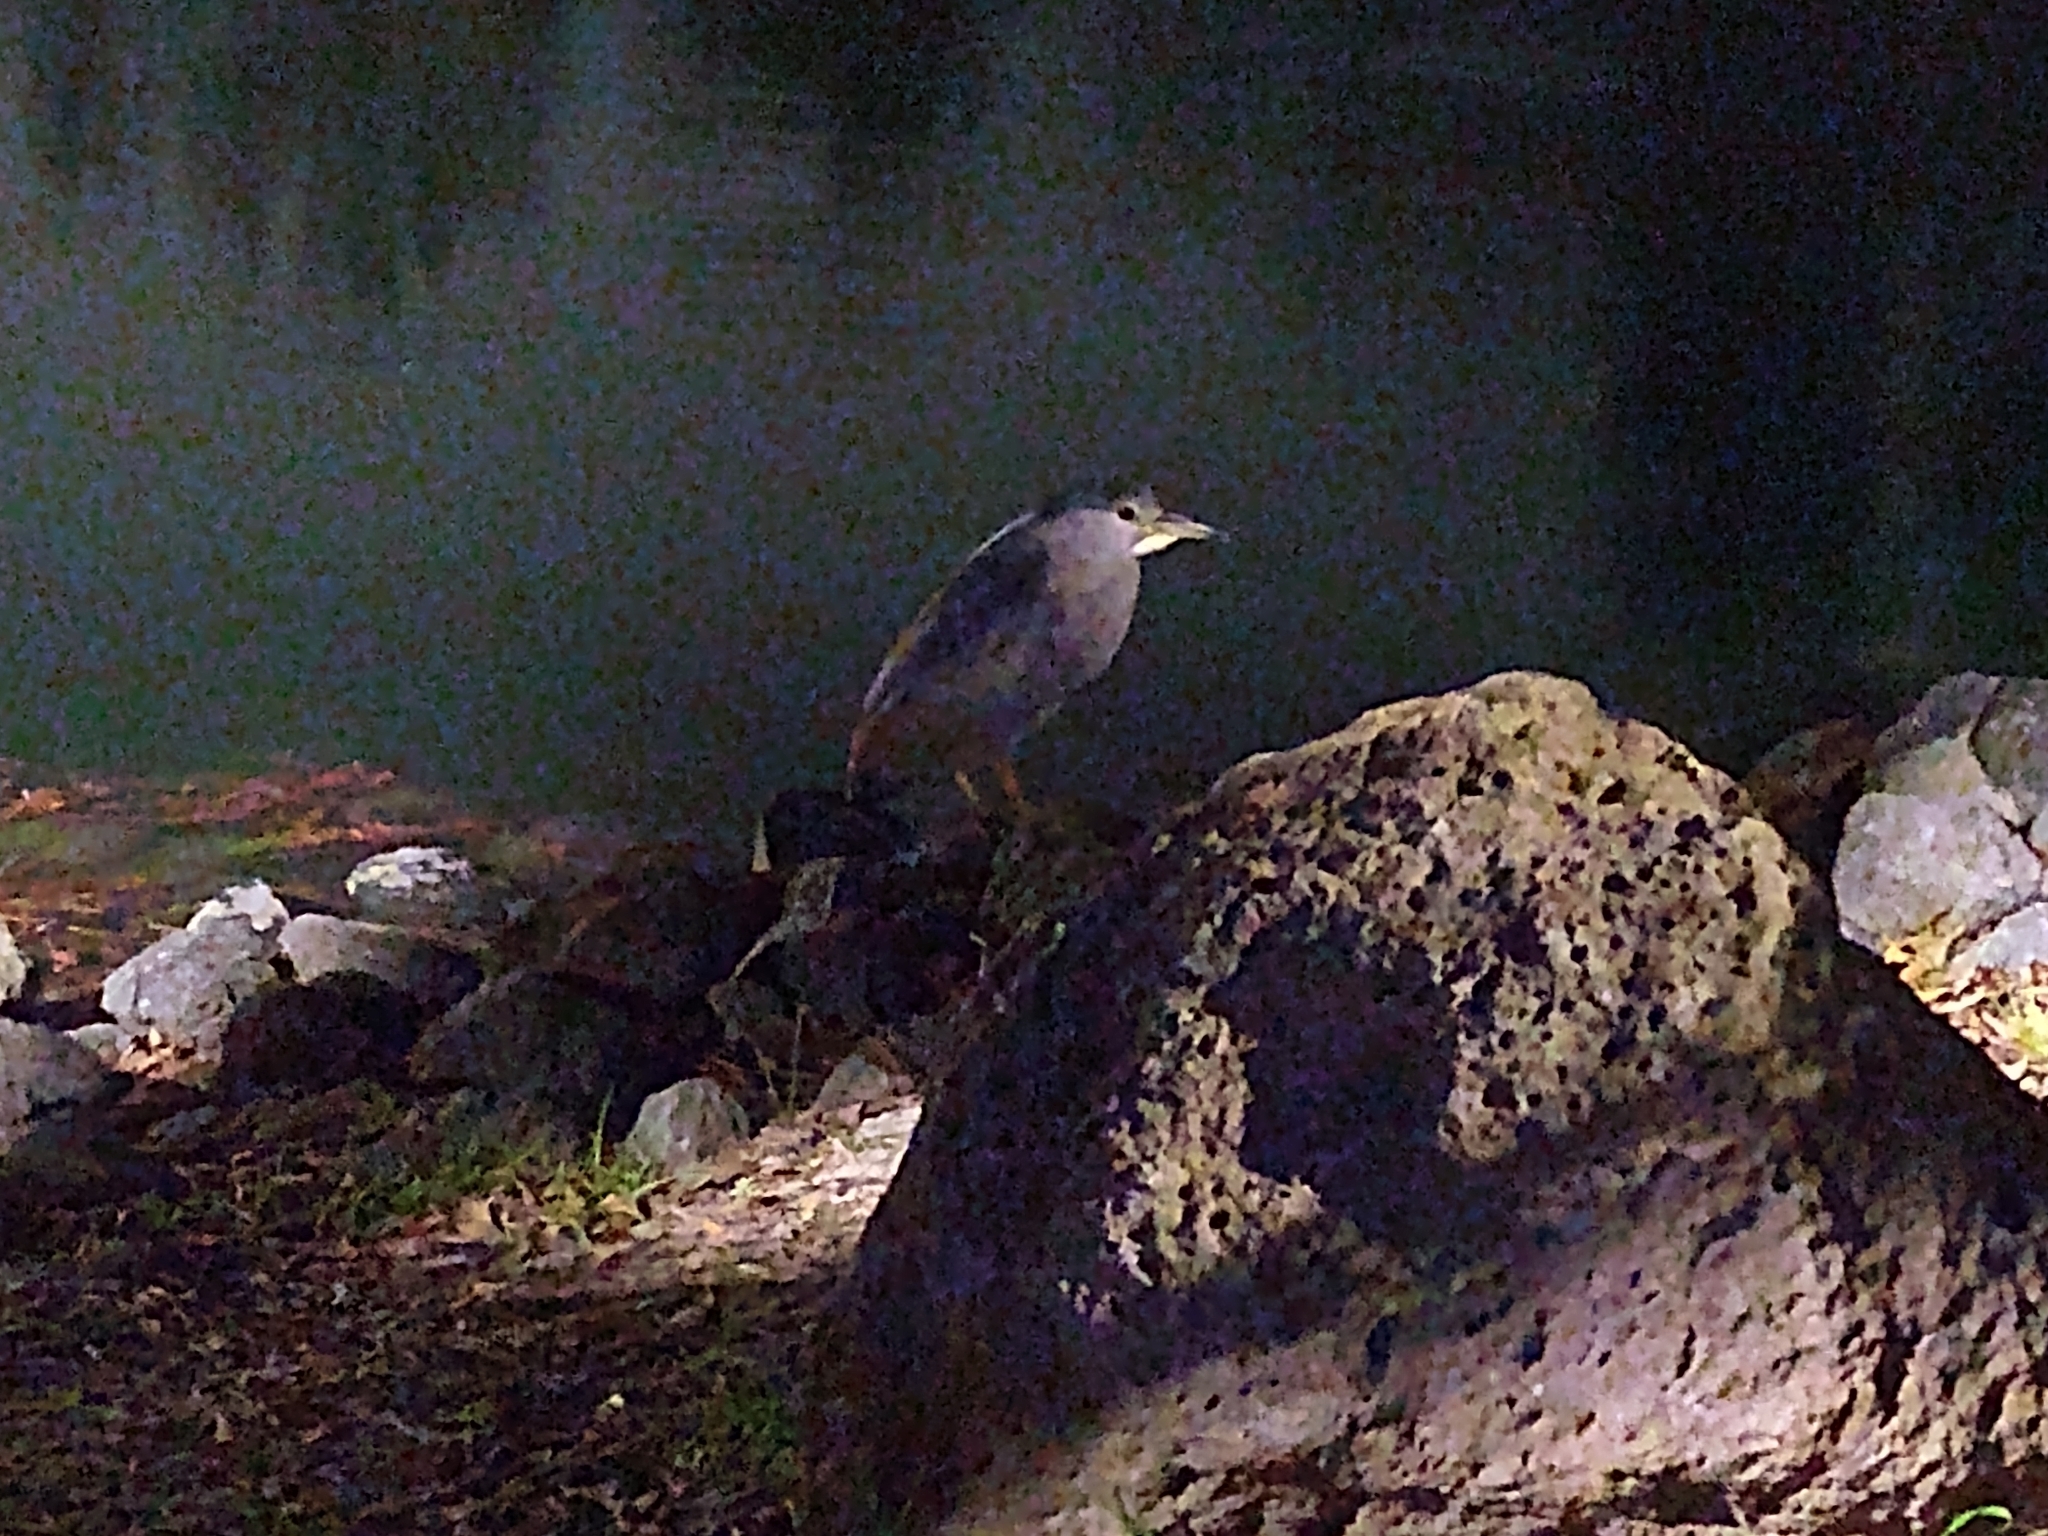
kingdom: Animalia
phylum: Chordata
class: Aves
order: Pelecaniformes
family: Ardeidae
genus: Nycticorax
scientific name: Nycticorax nycticorax
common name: Black-crowned night heron
